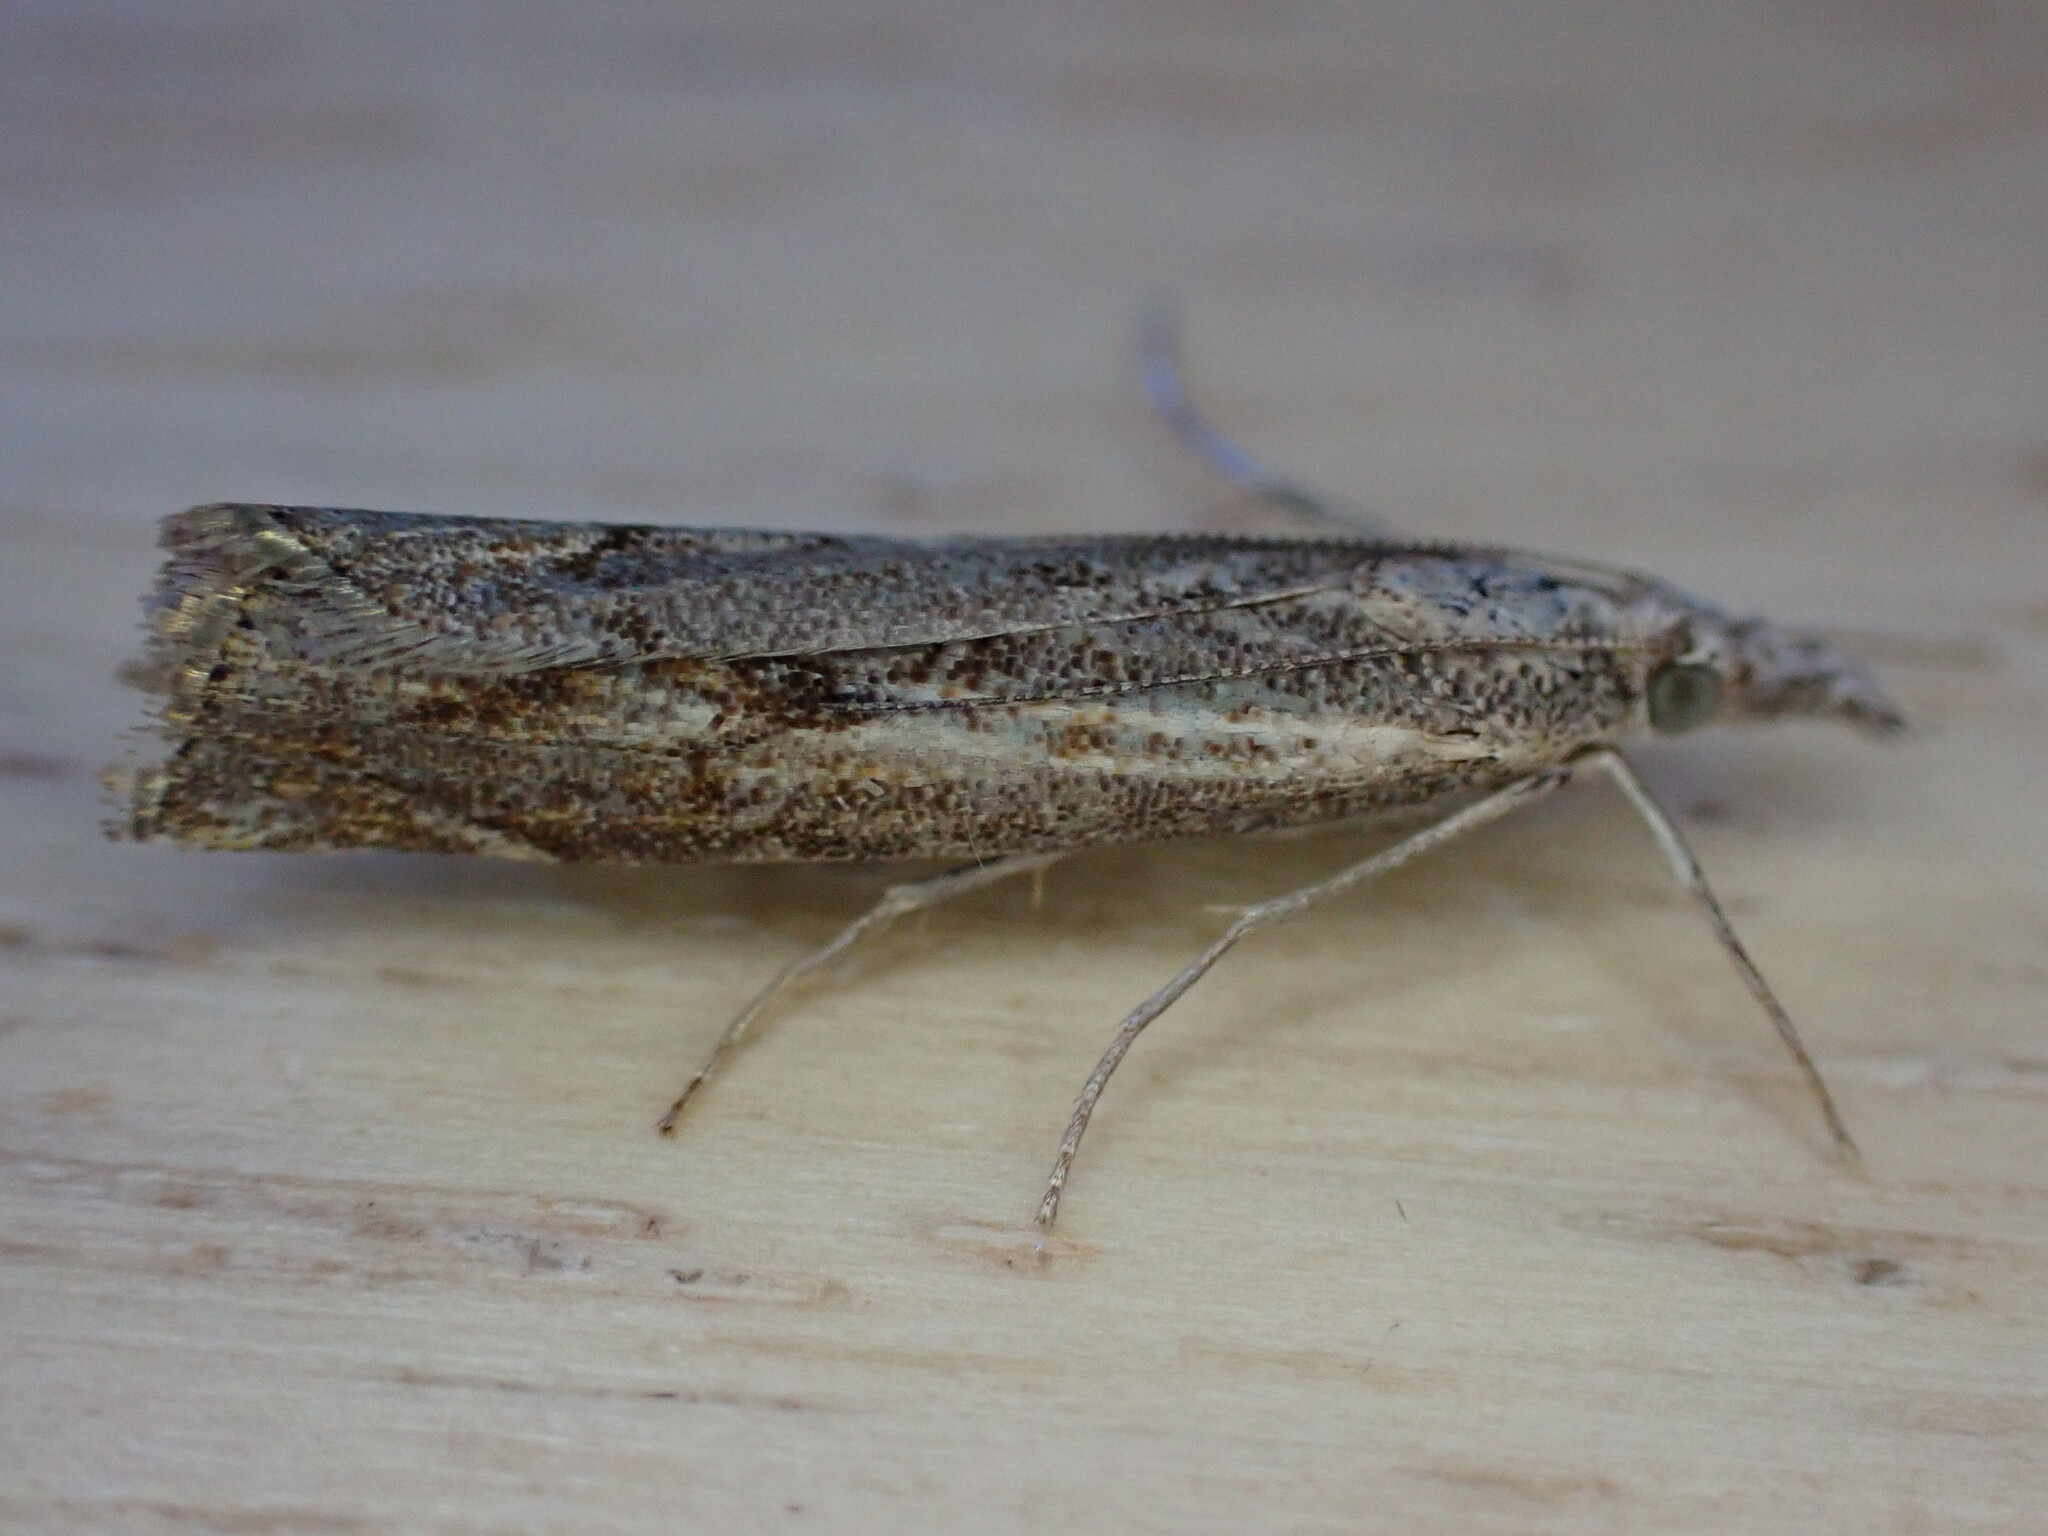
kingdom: Animalia
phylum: Arthropoda
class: Insecta
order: Lepidoptera
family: Crambidae
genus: Agriphila
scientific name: Agriphila geniculea
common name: Elbow-stripe grass-veneer
